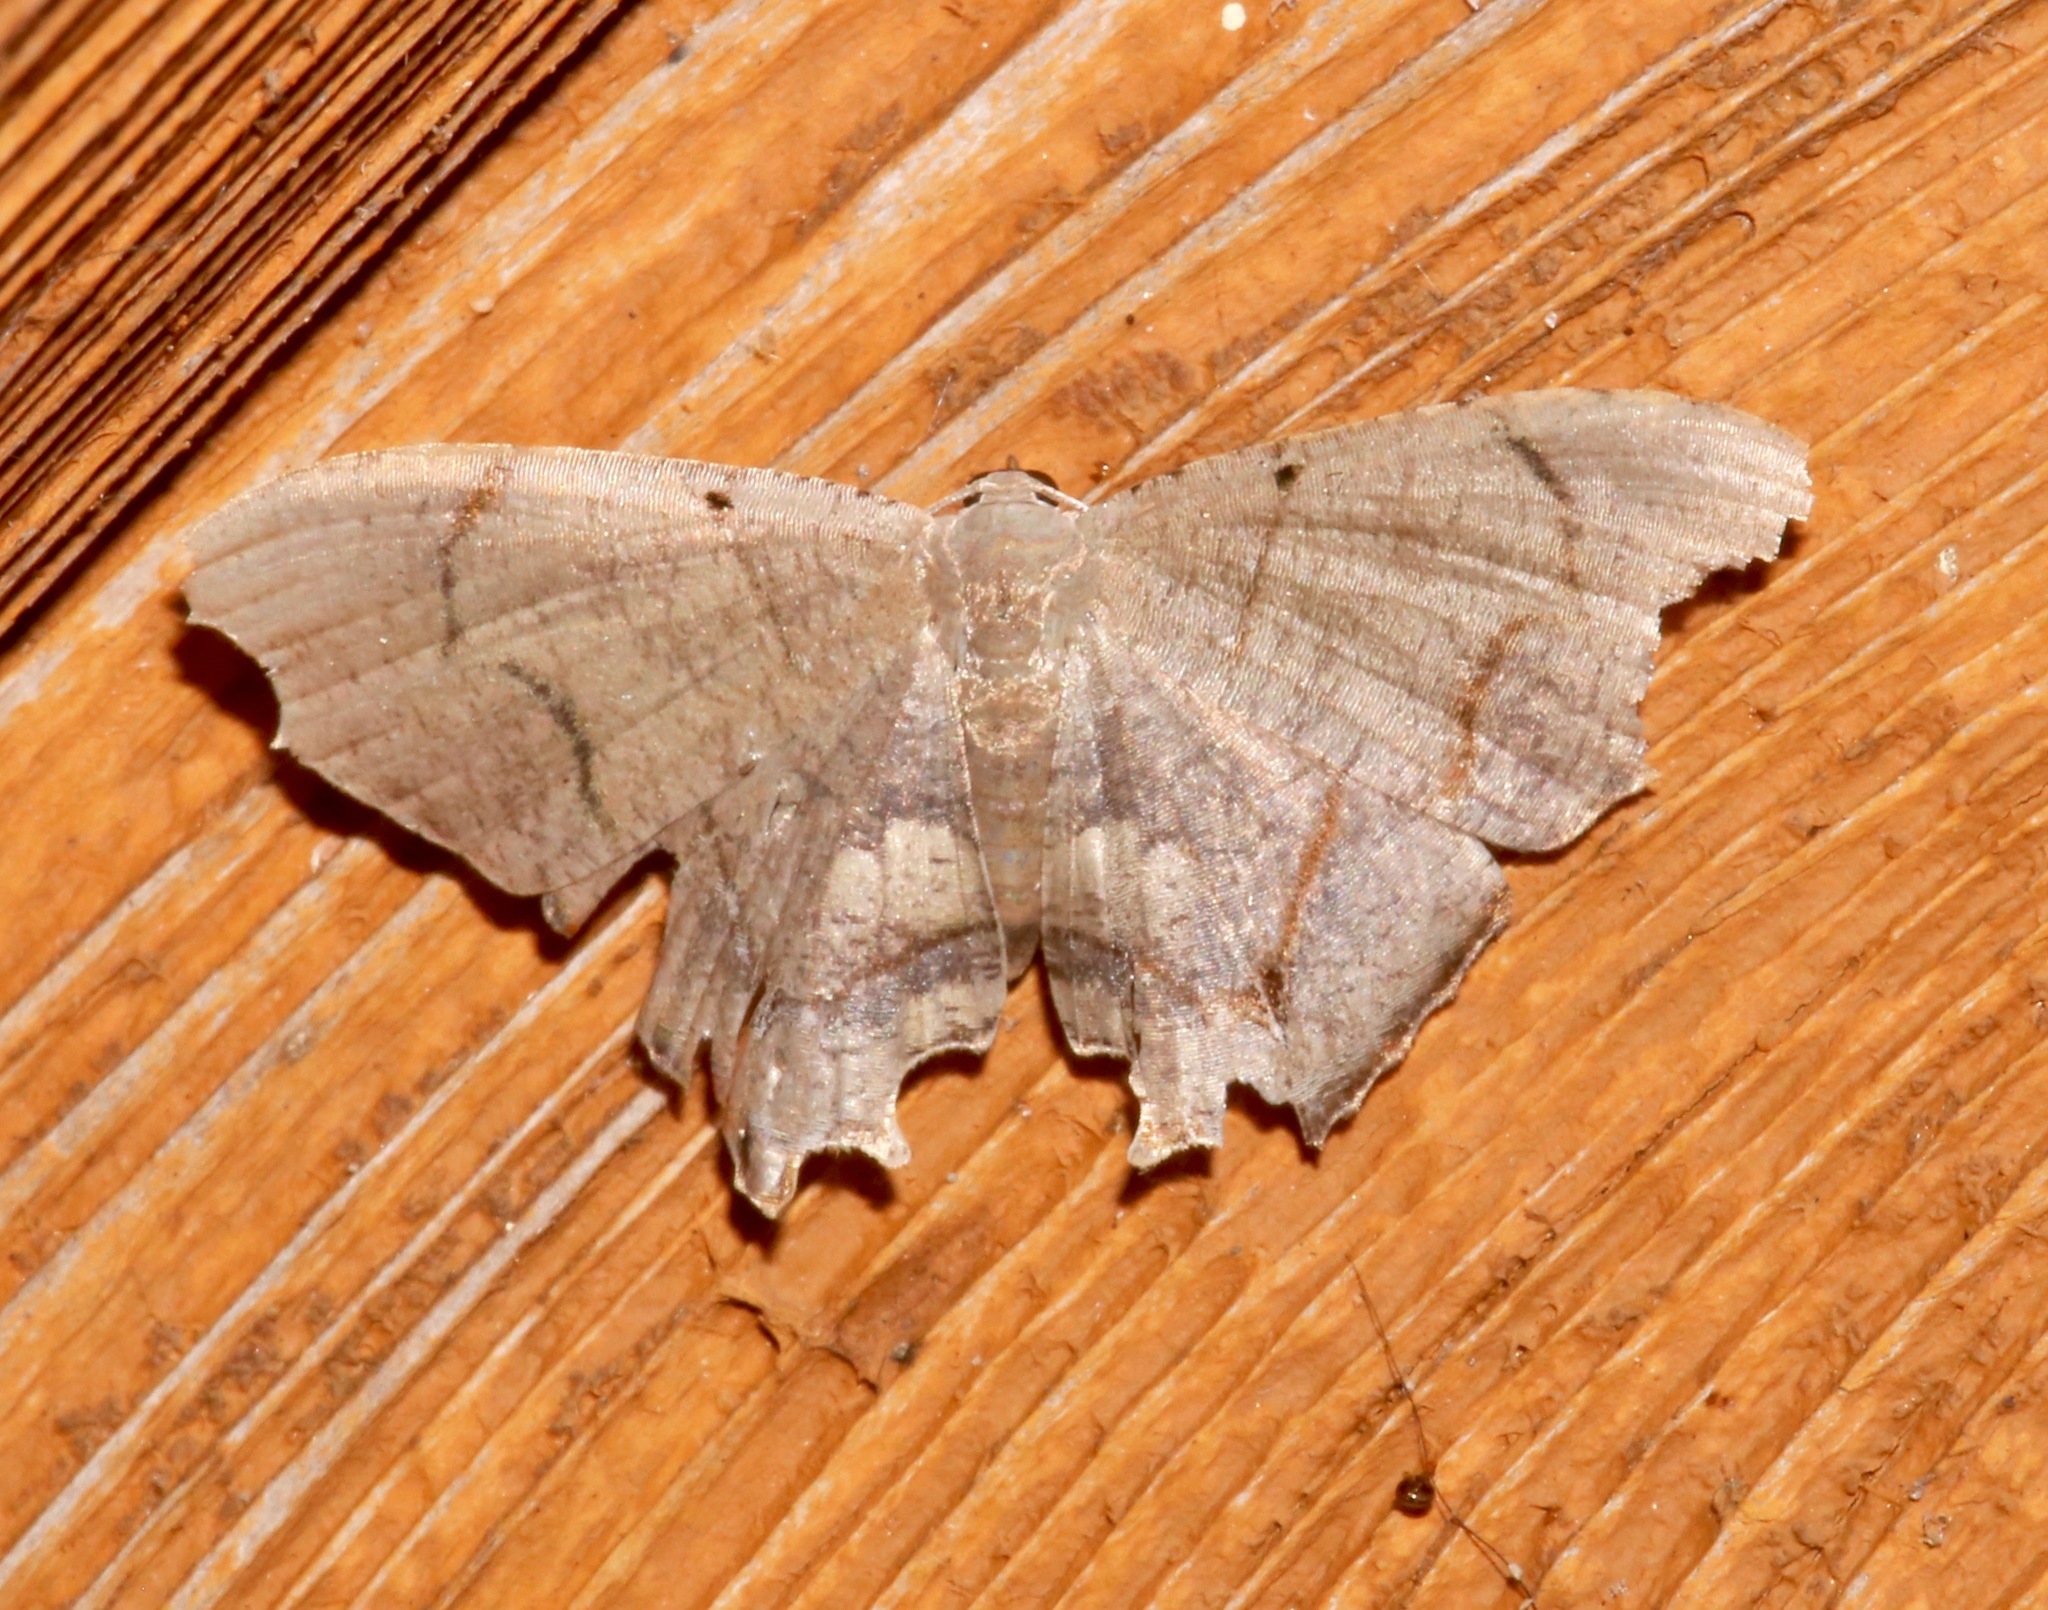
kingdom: Animalia
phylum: Arthropoda
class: Insecta
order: Lepidoptera
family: Uraniidae
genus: Trotorhombia
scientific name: Trotorhombia metachromata
